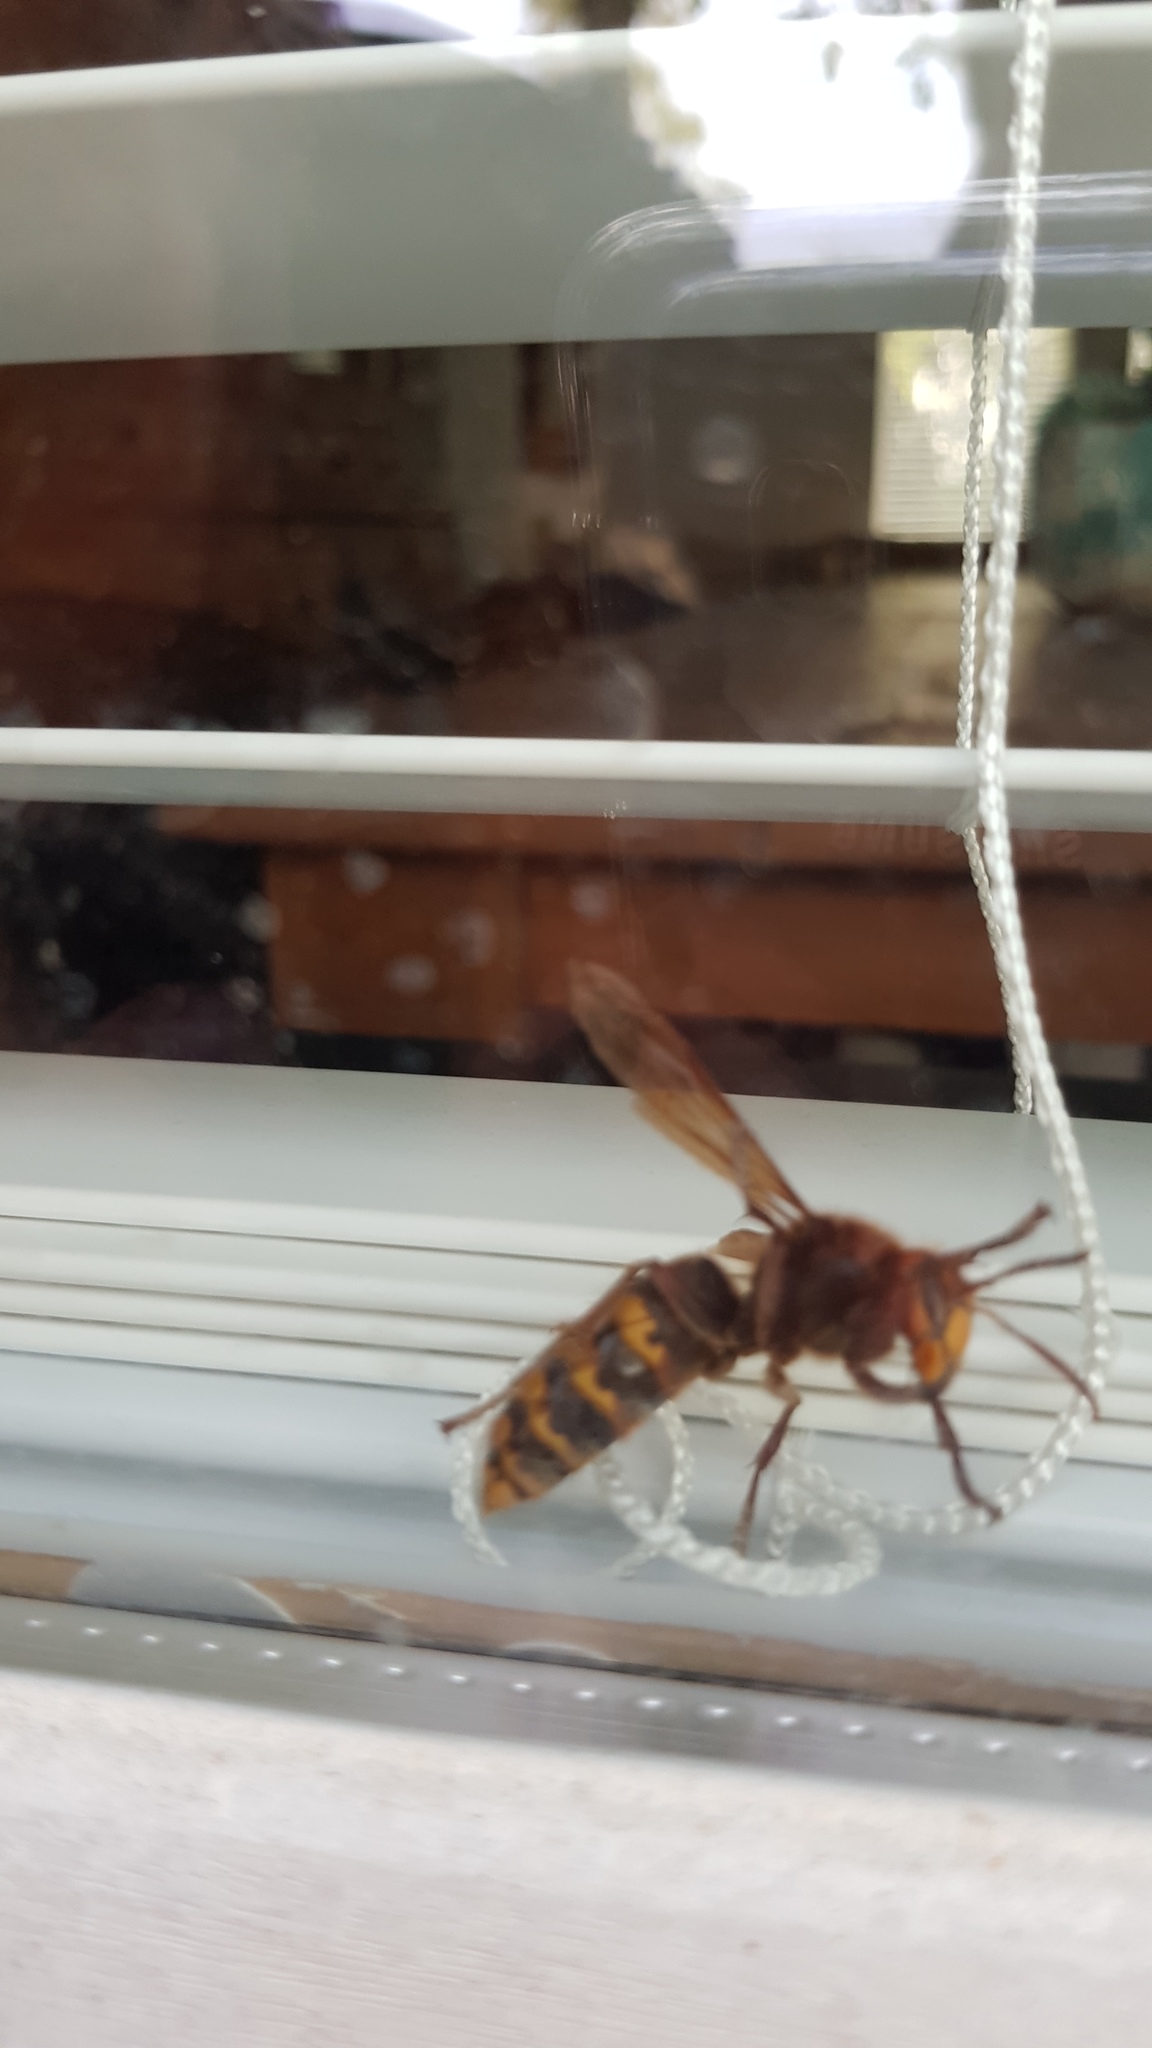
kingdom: Animalia
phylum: Arthropoda
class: Insecta
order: Hymenoptera
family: Vespidae
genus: Vespa
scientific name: Vespa crabro
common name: Hornet
